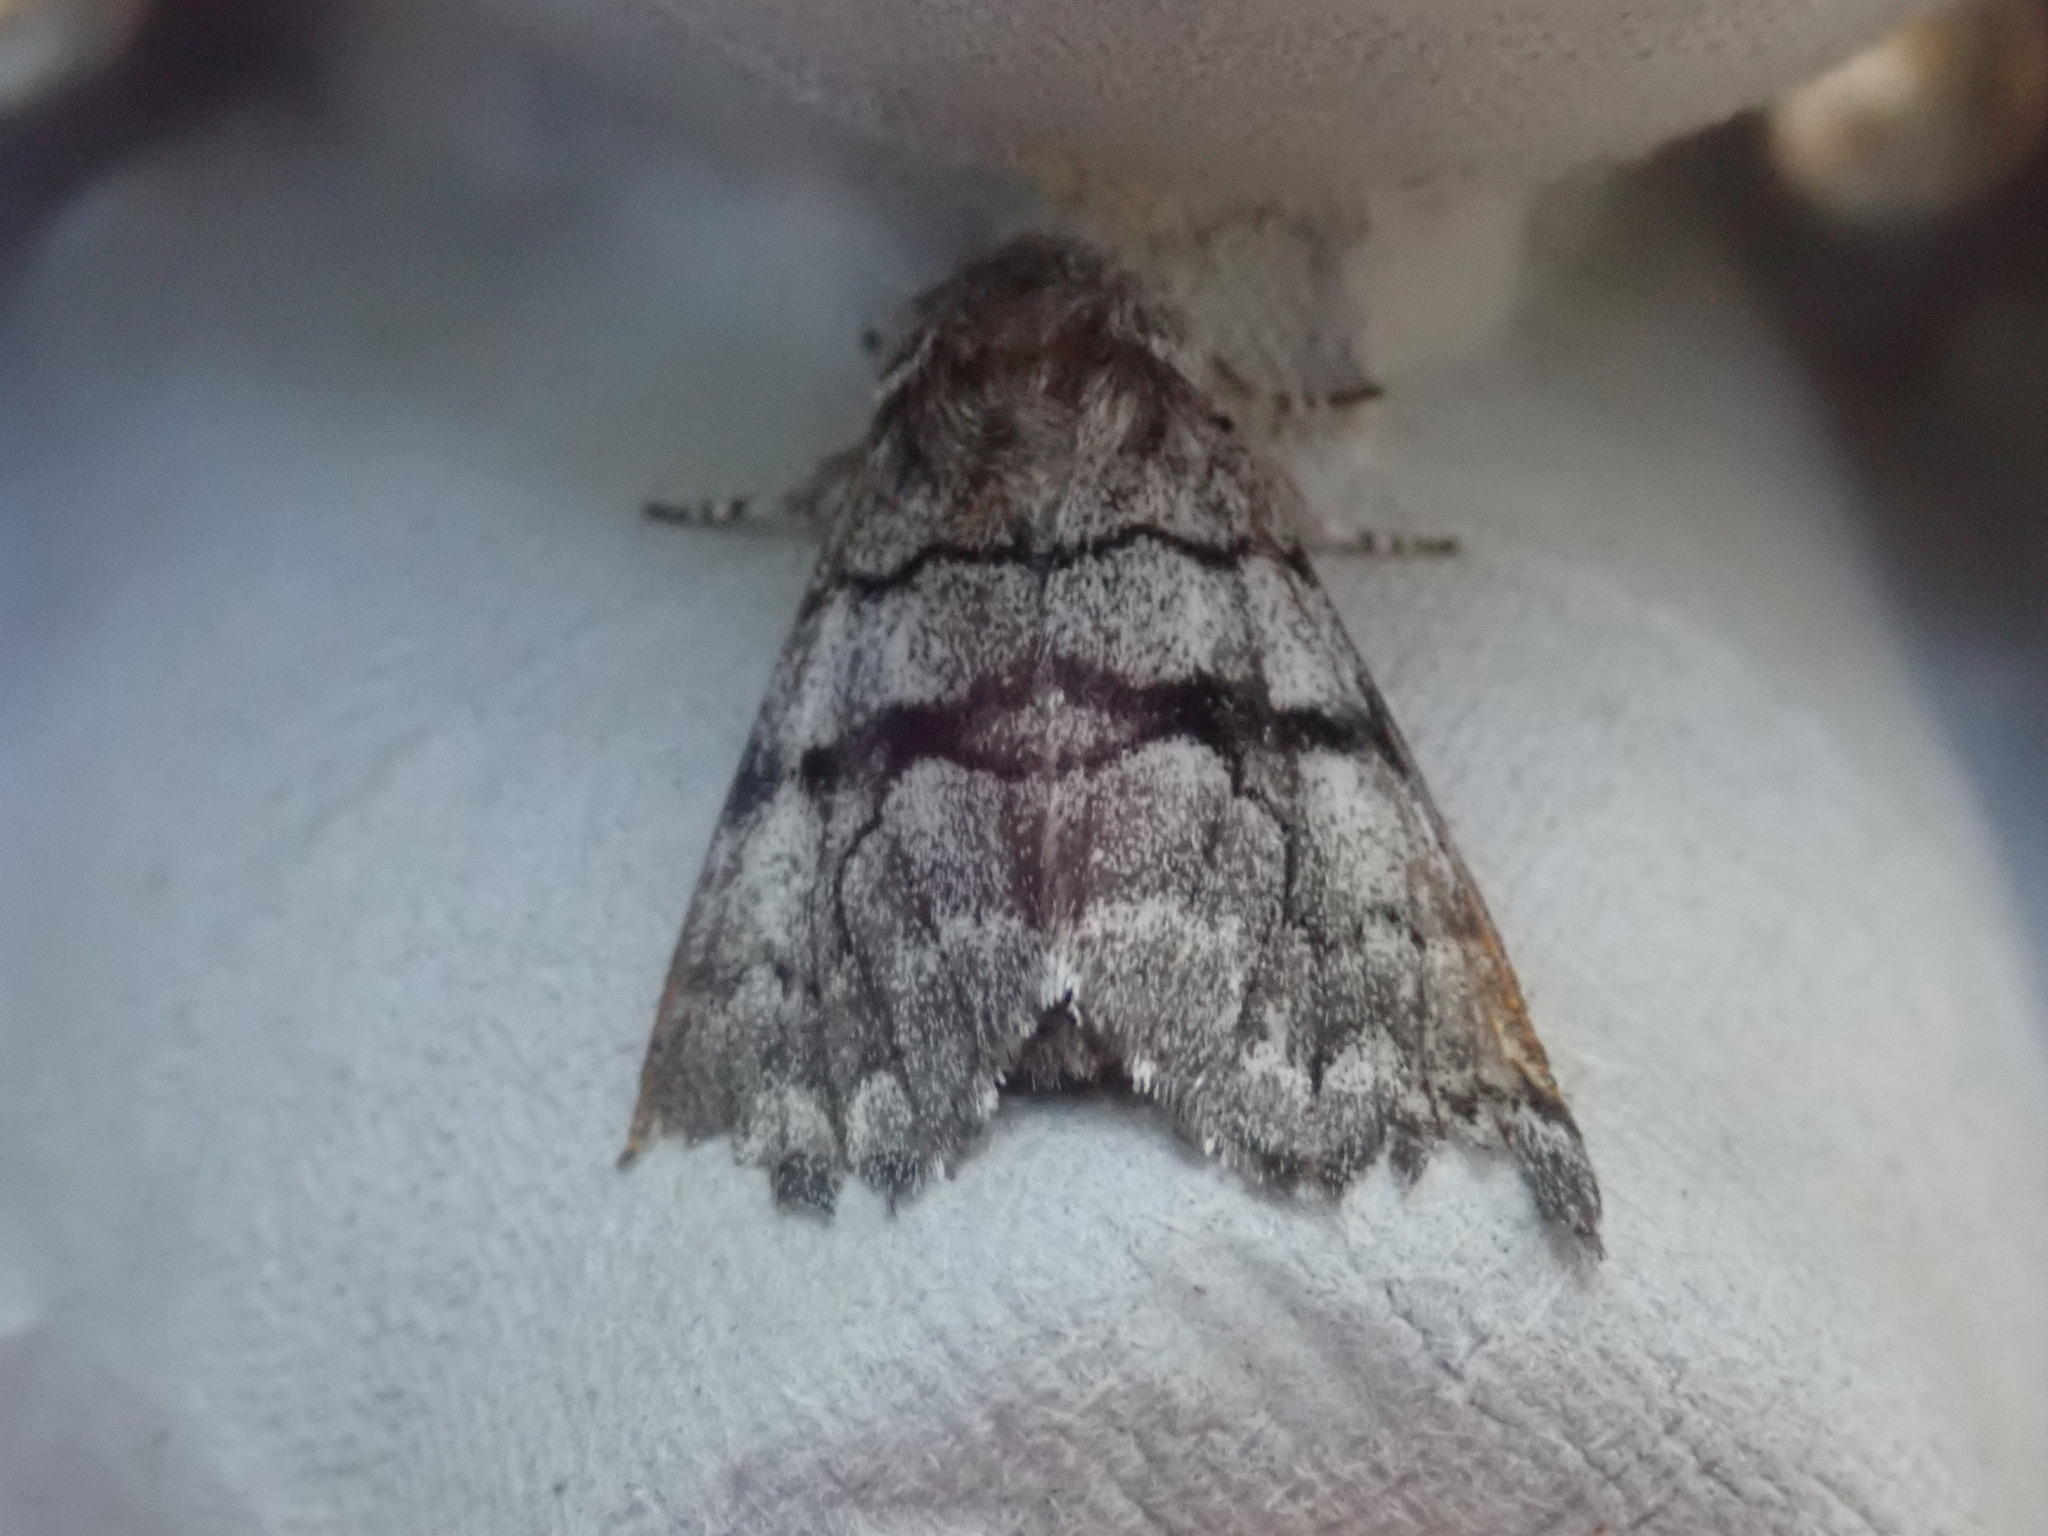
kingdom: Animalia
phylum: Arthropoda
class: Insecta
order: Lepidoptera
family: Noctuidae
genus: Panthea
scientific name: Panthea furcilla
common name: Eastern panthea moth
